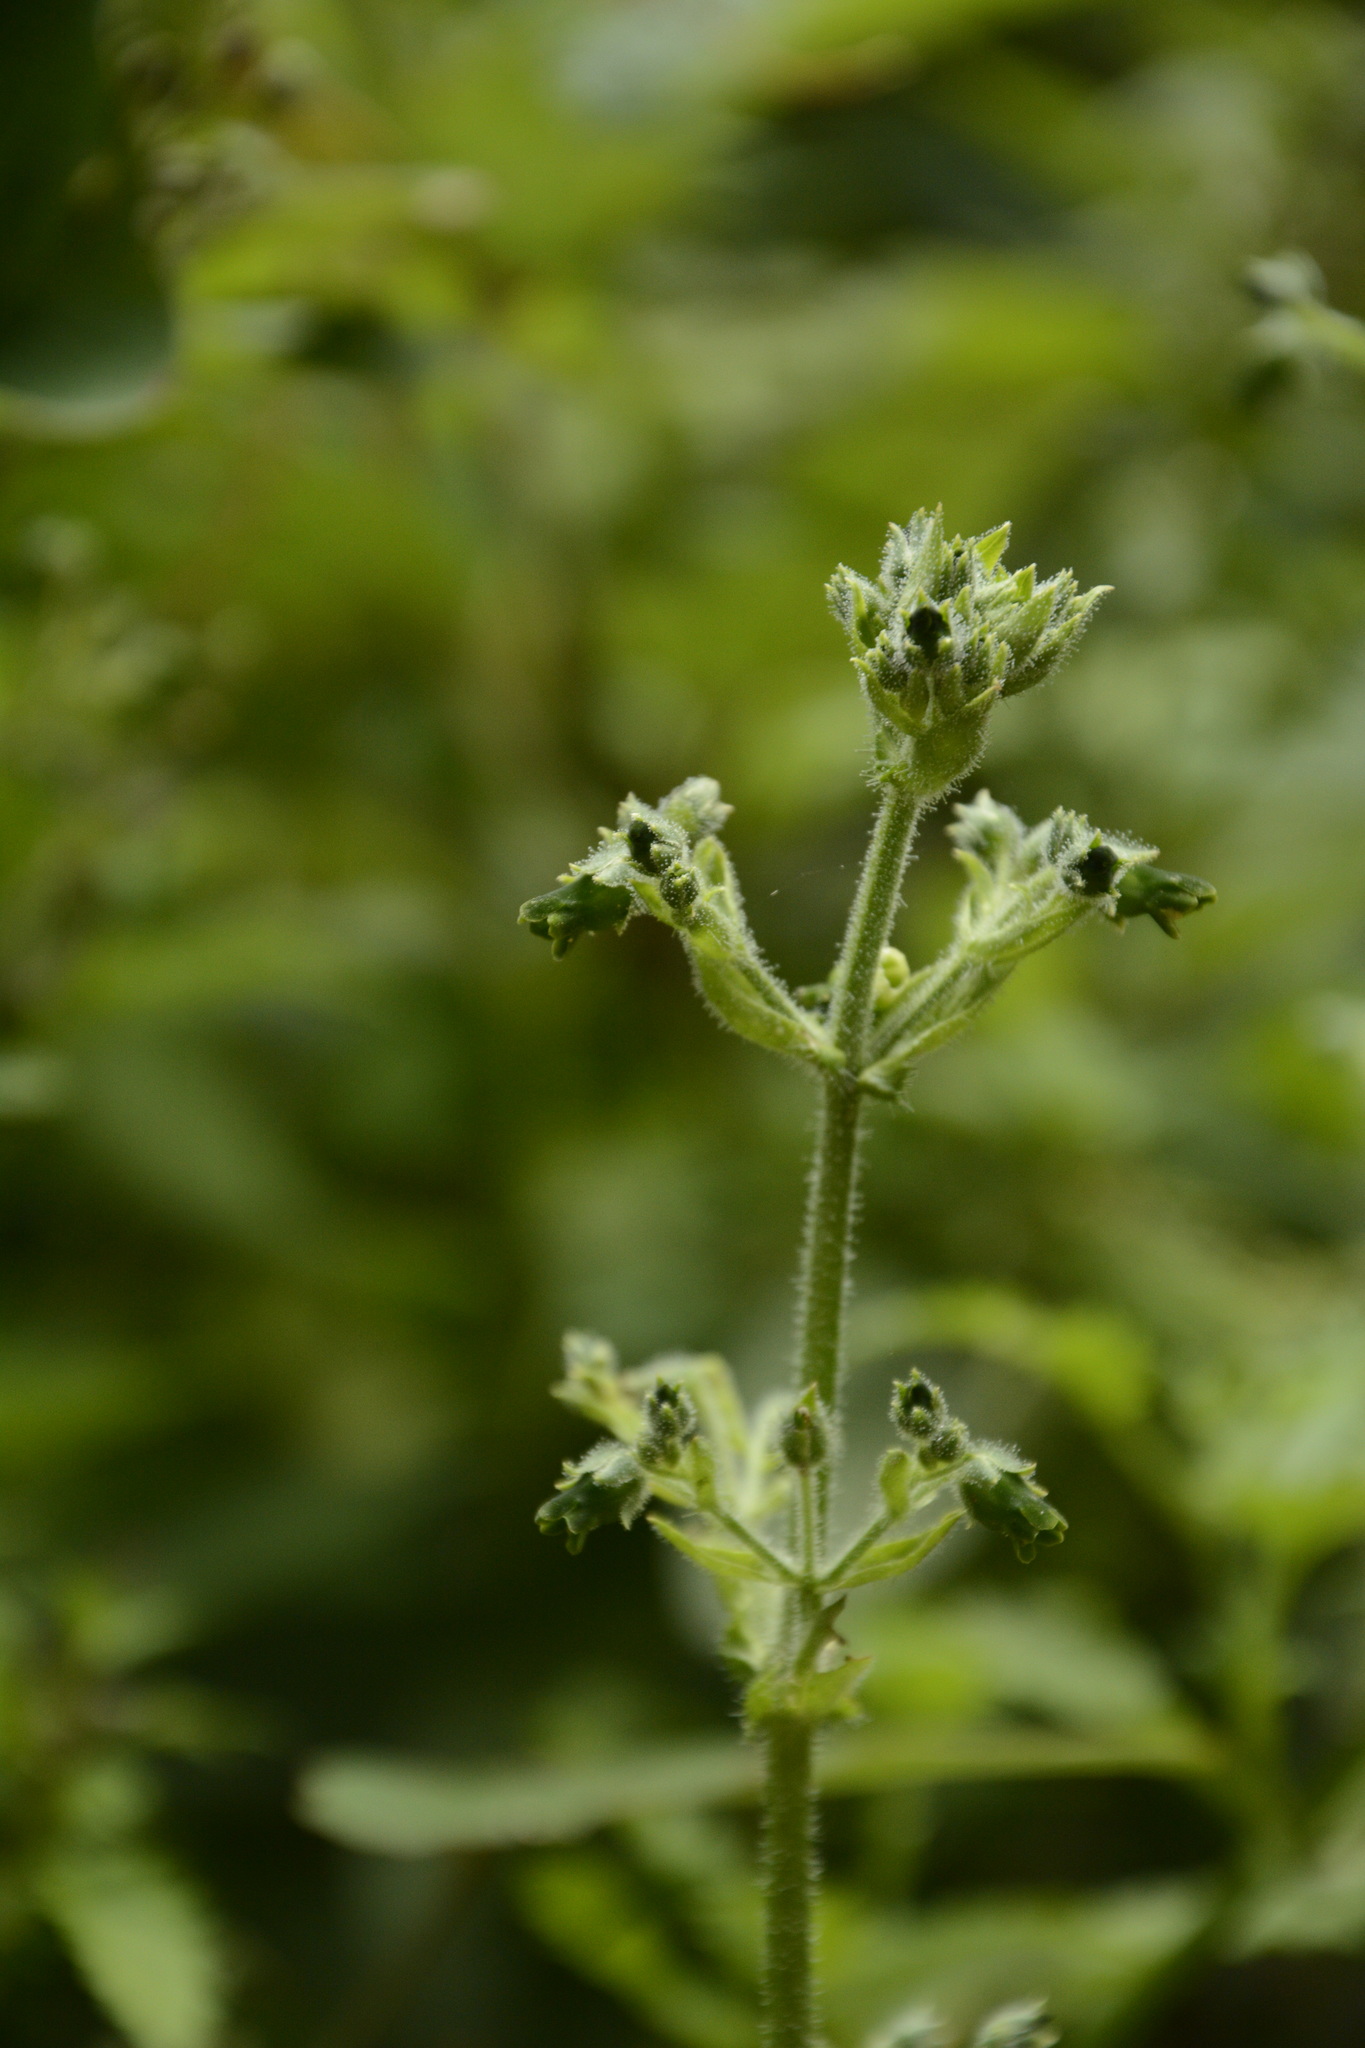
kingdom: Plantae
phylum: Tracheophyta
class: Magnoliopsida
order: Lamiales
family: Scrophulariaceae
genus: Scrophularia
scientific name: Scrophularia edgeworthii
